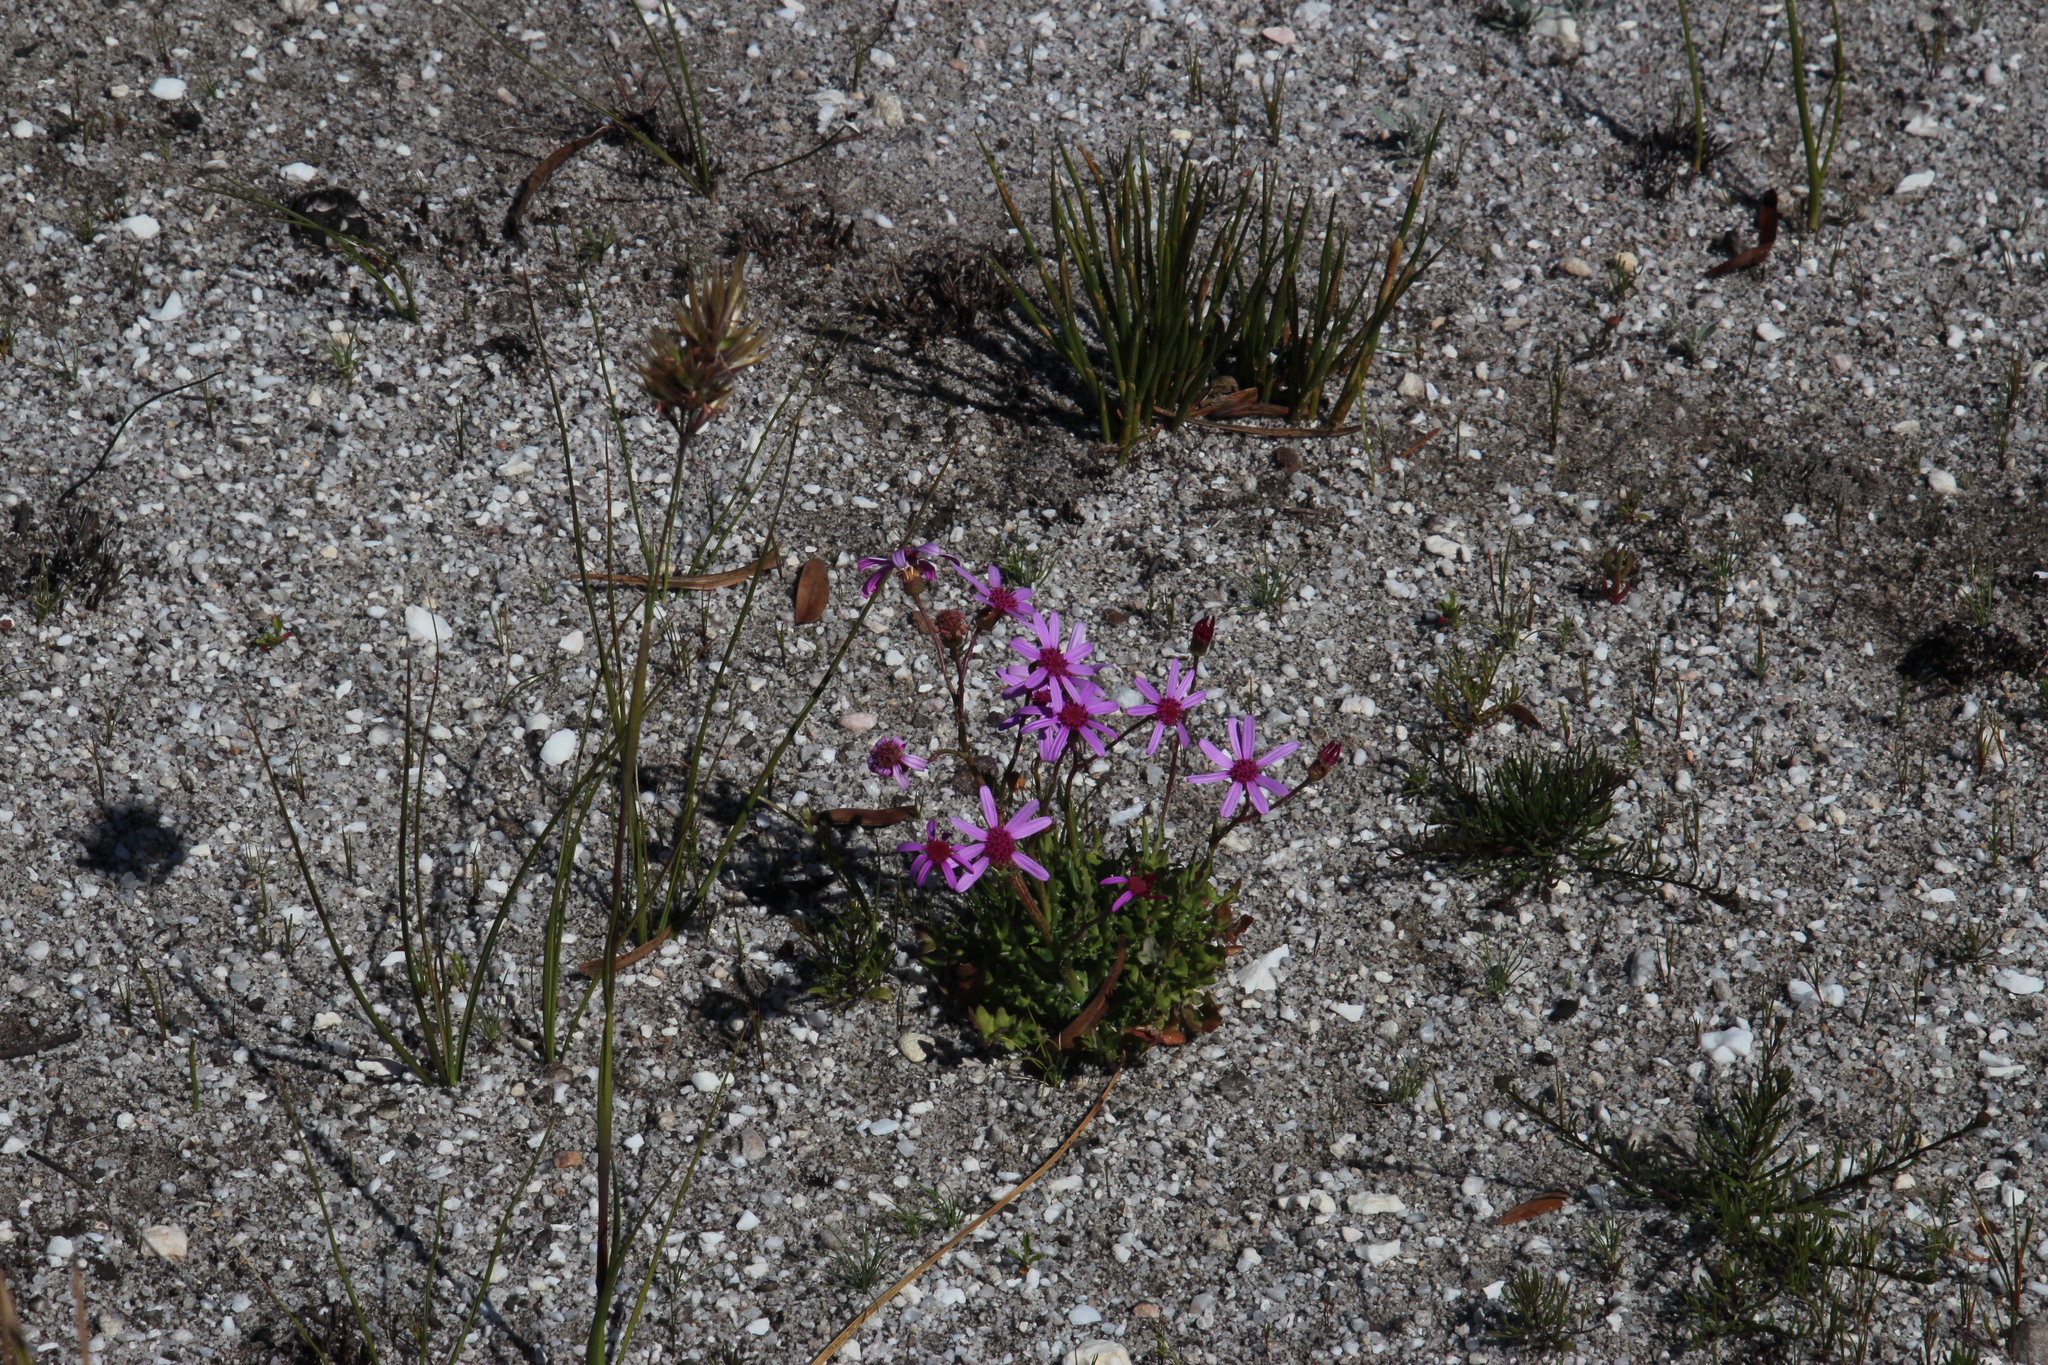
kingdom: Plantae
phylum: Tracheophyta
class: Magnoliopsida
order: Asterales
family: Asteraceae
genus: Senecio
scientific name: Senecio cymbalariifolius
